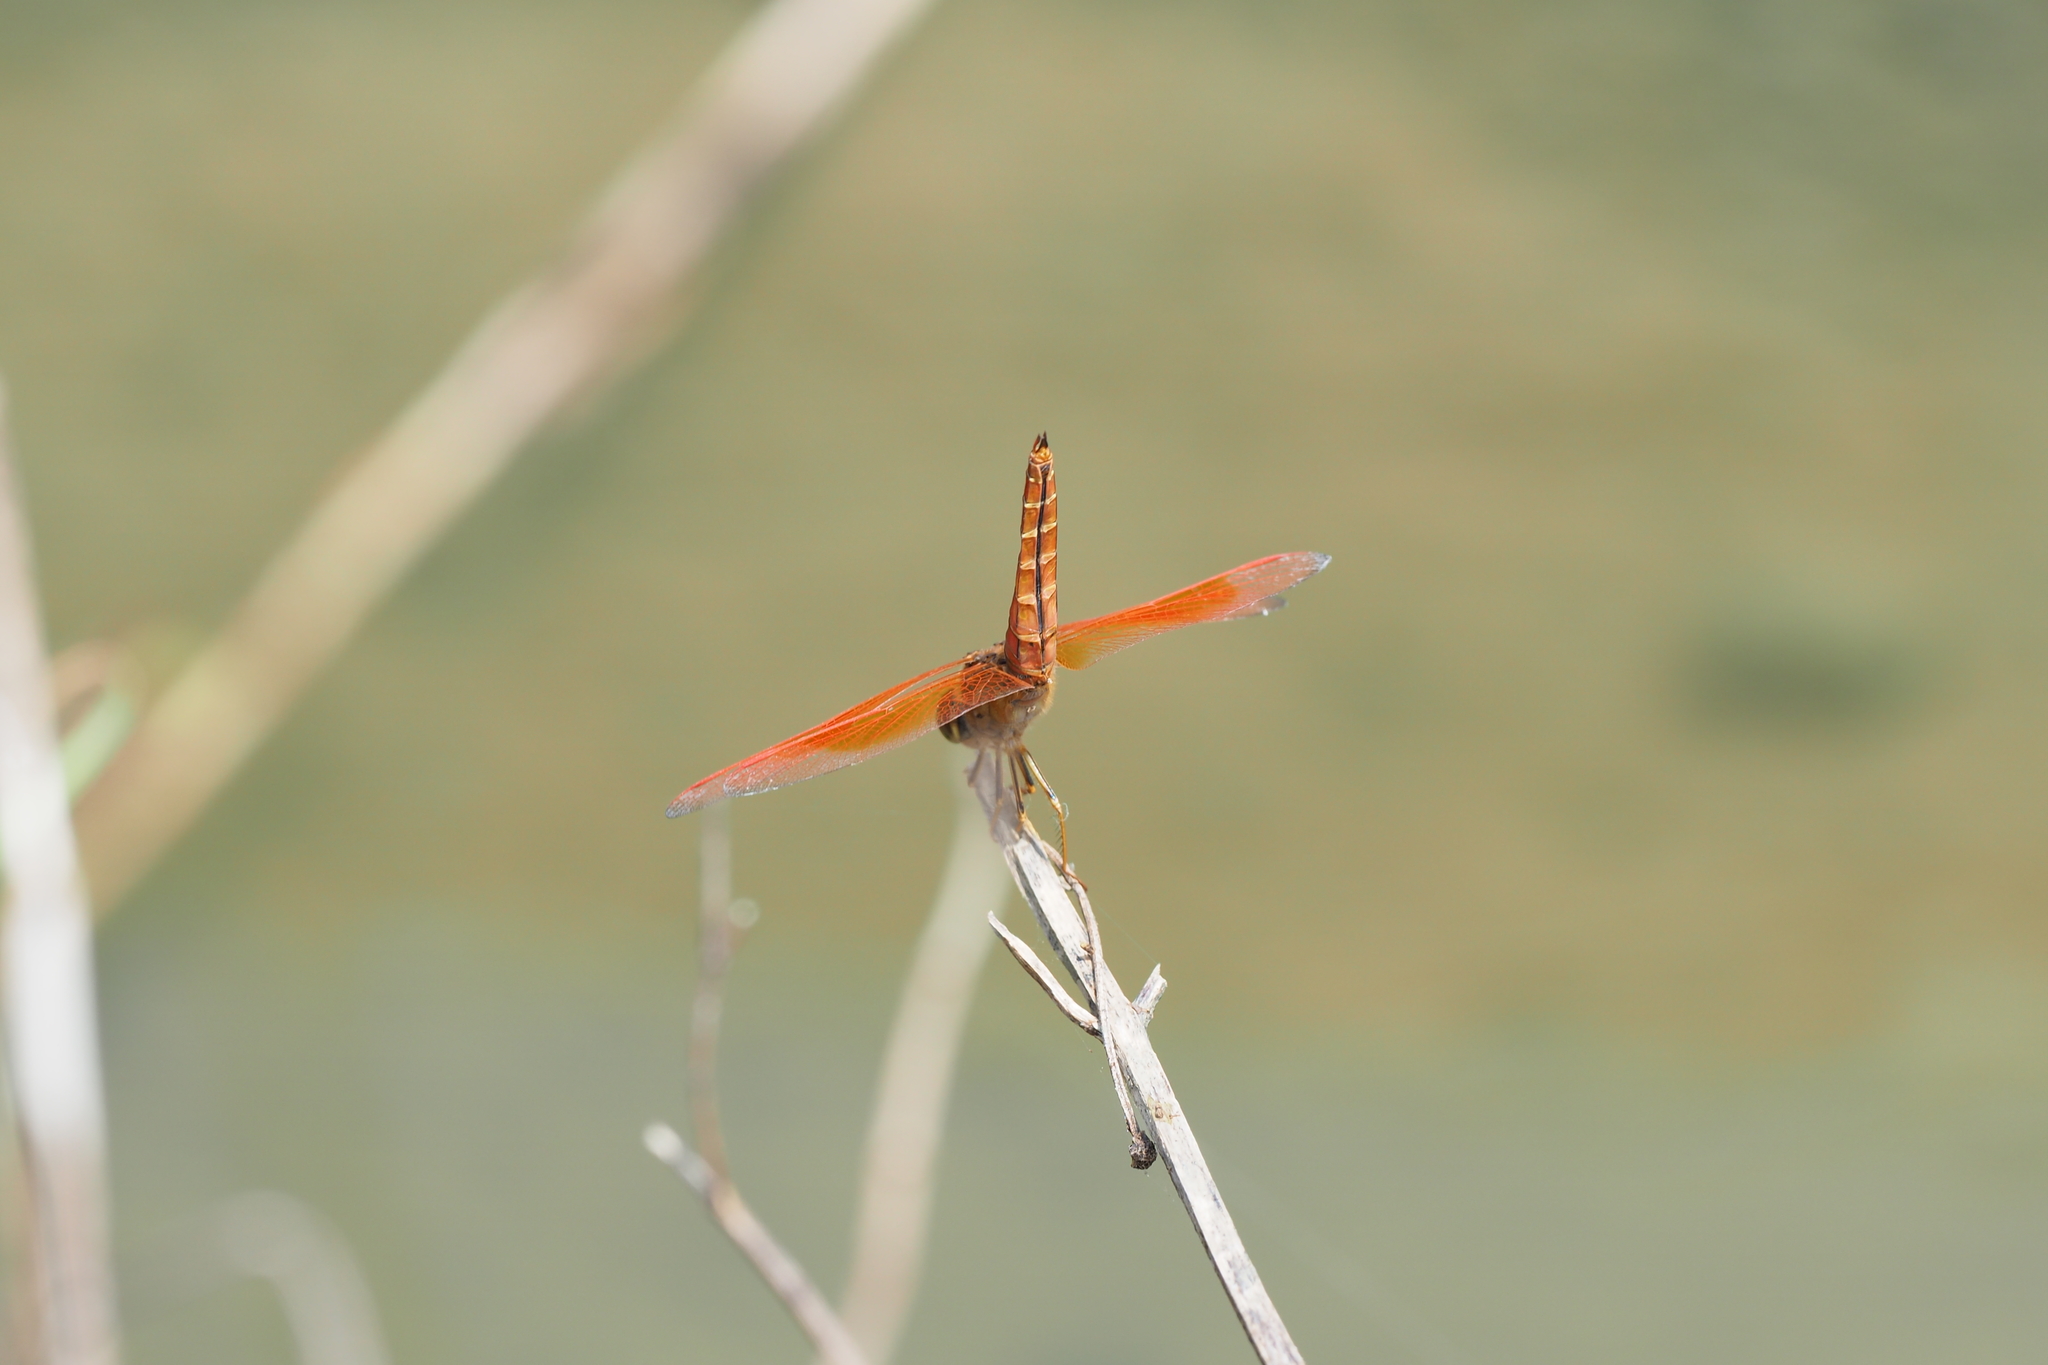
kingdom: Animalia
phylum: Arthropoda
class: Insecta
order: Odonata
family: Libellulidae
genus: Brachythemis
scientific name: Brachythemis contaminata
